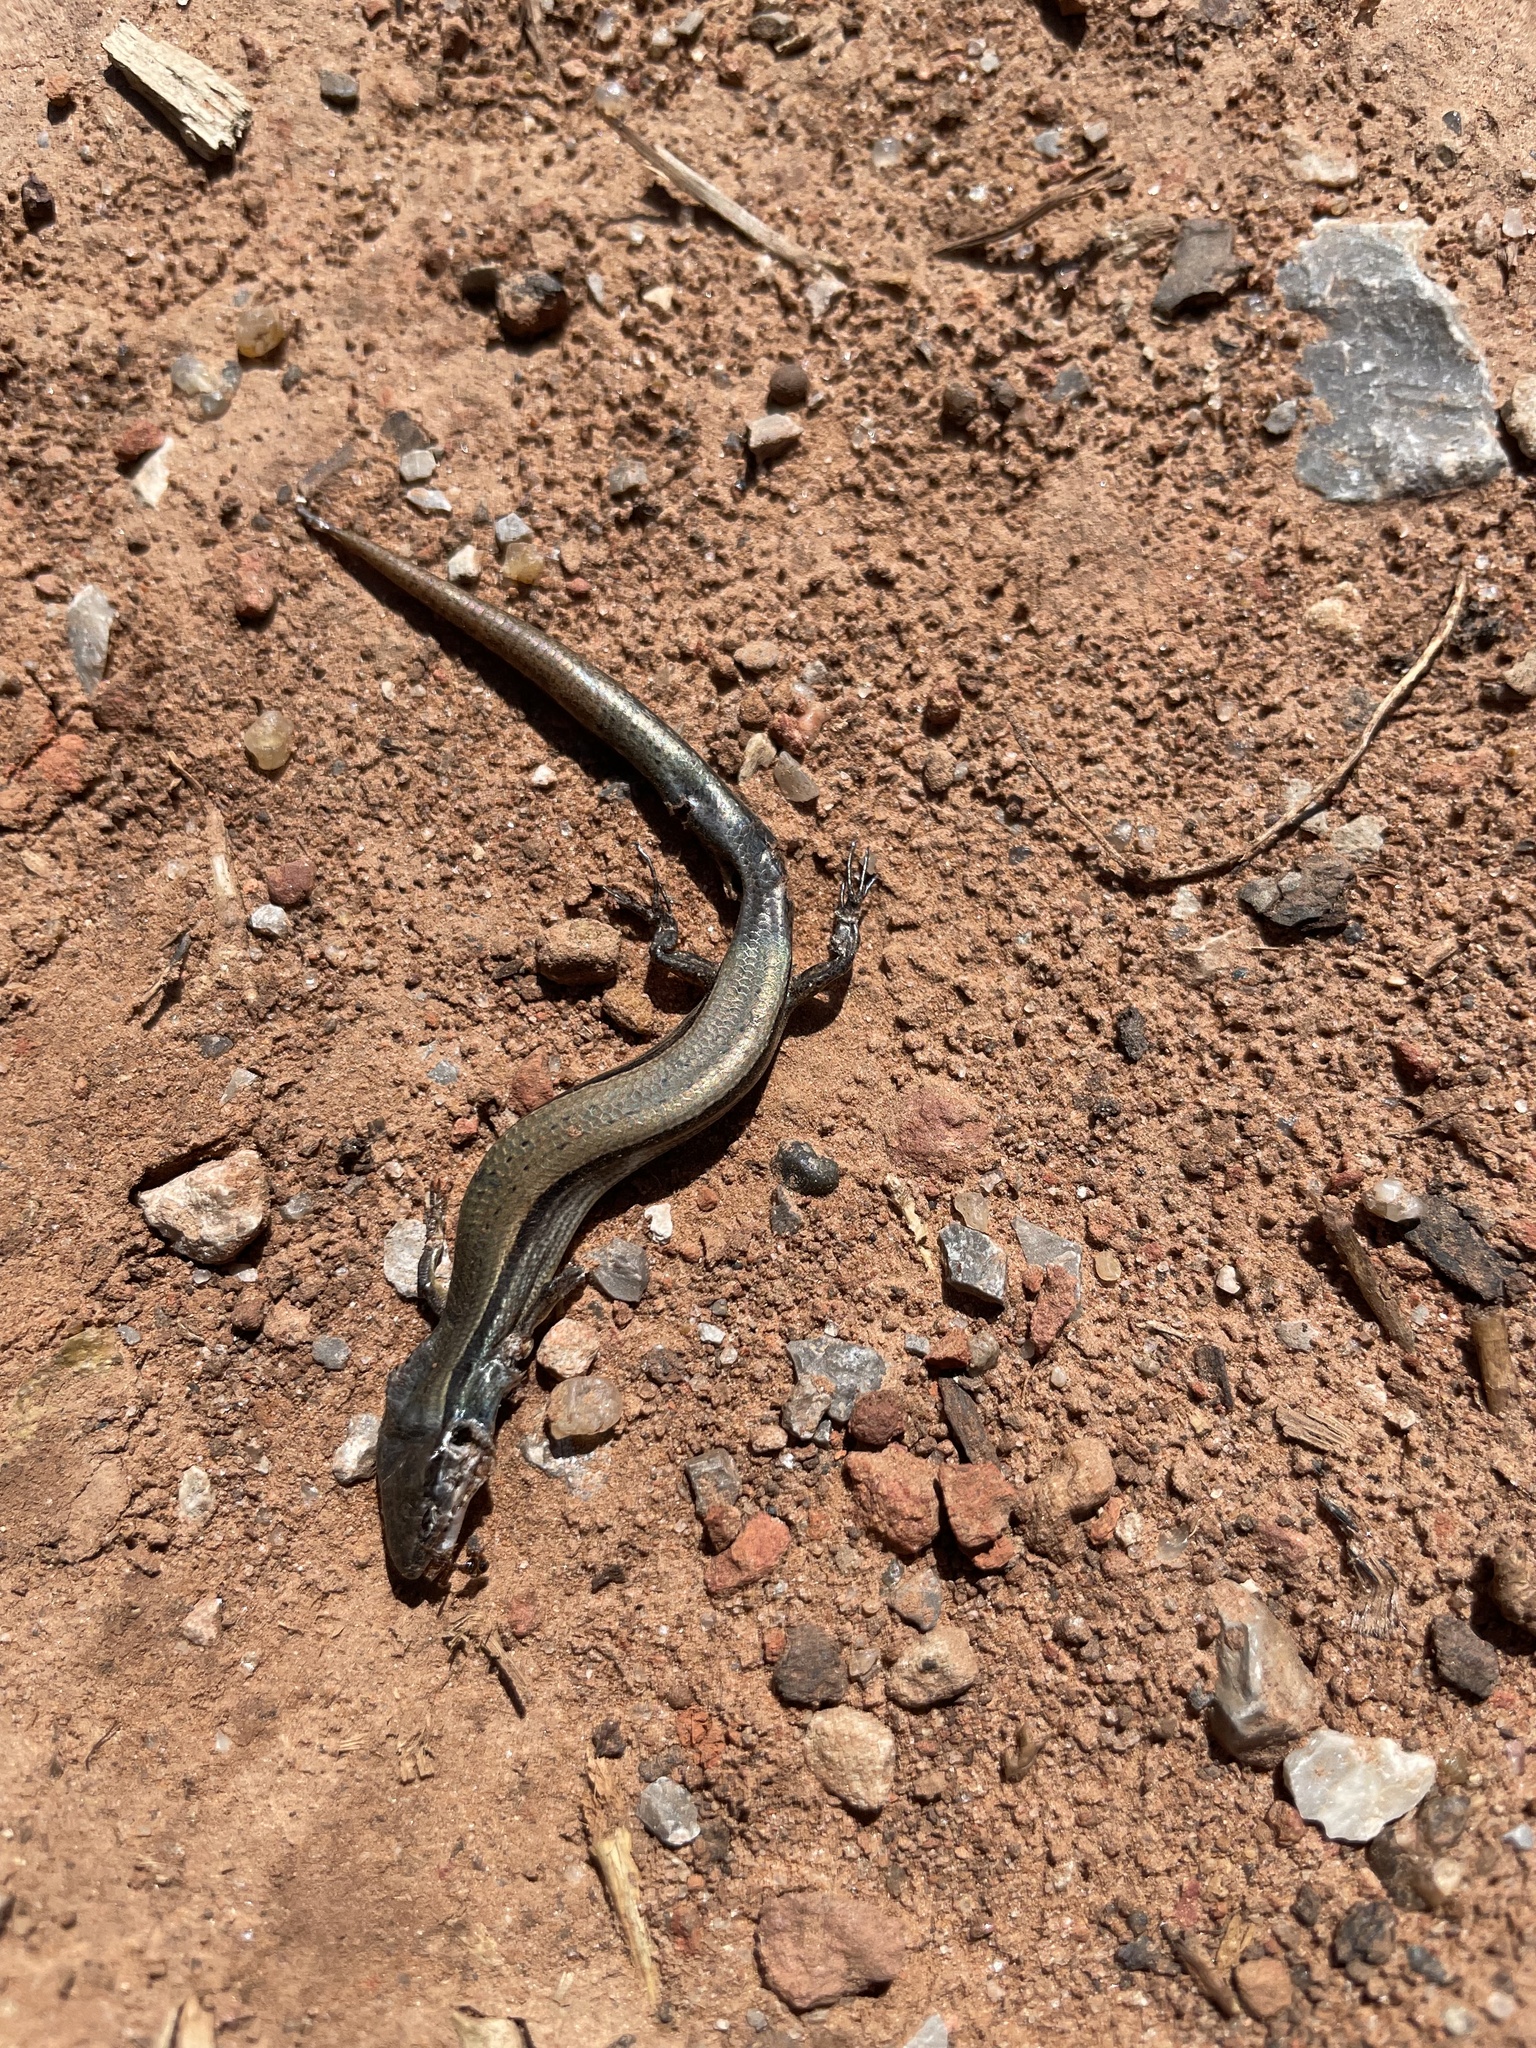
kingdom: Animalia
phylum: Chordata
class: Squamata
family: Scincidae
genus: Scincella
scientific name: Scincella lateralis
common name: Ground skink
